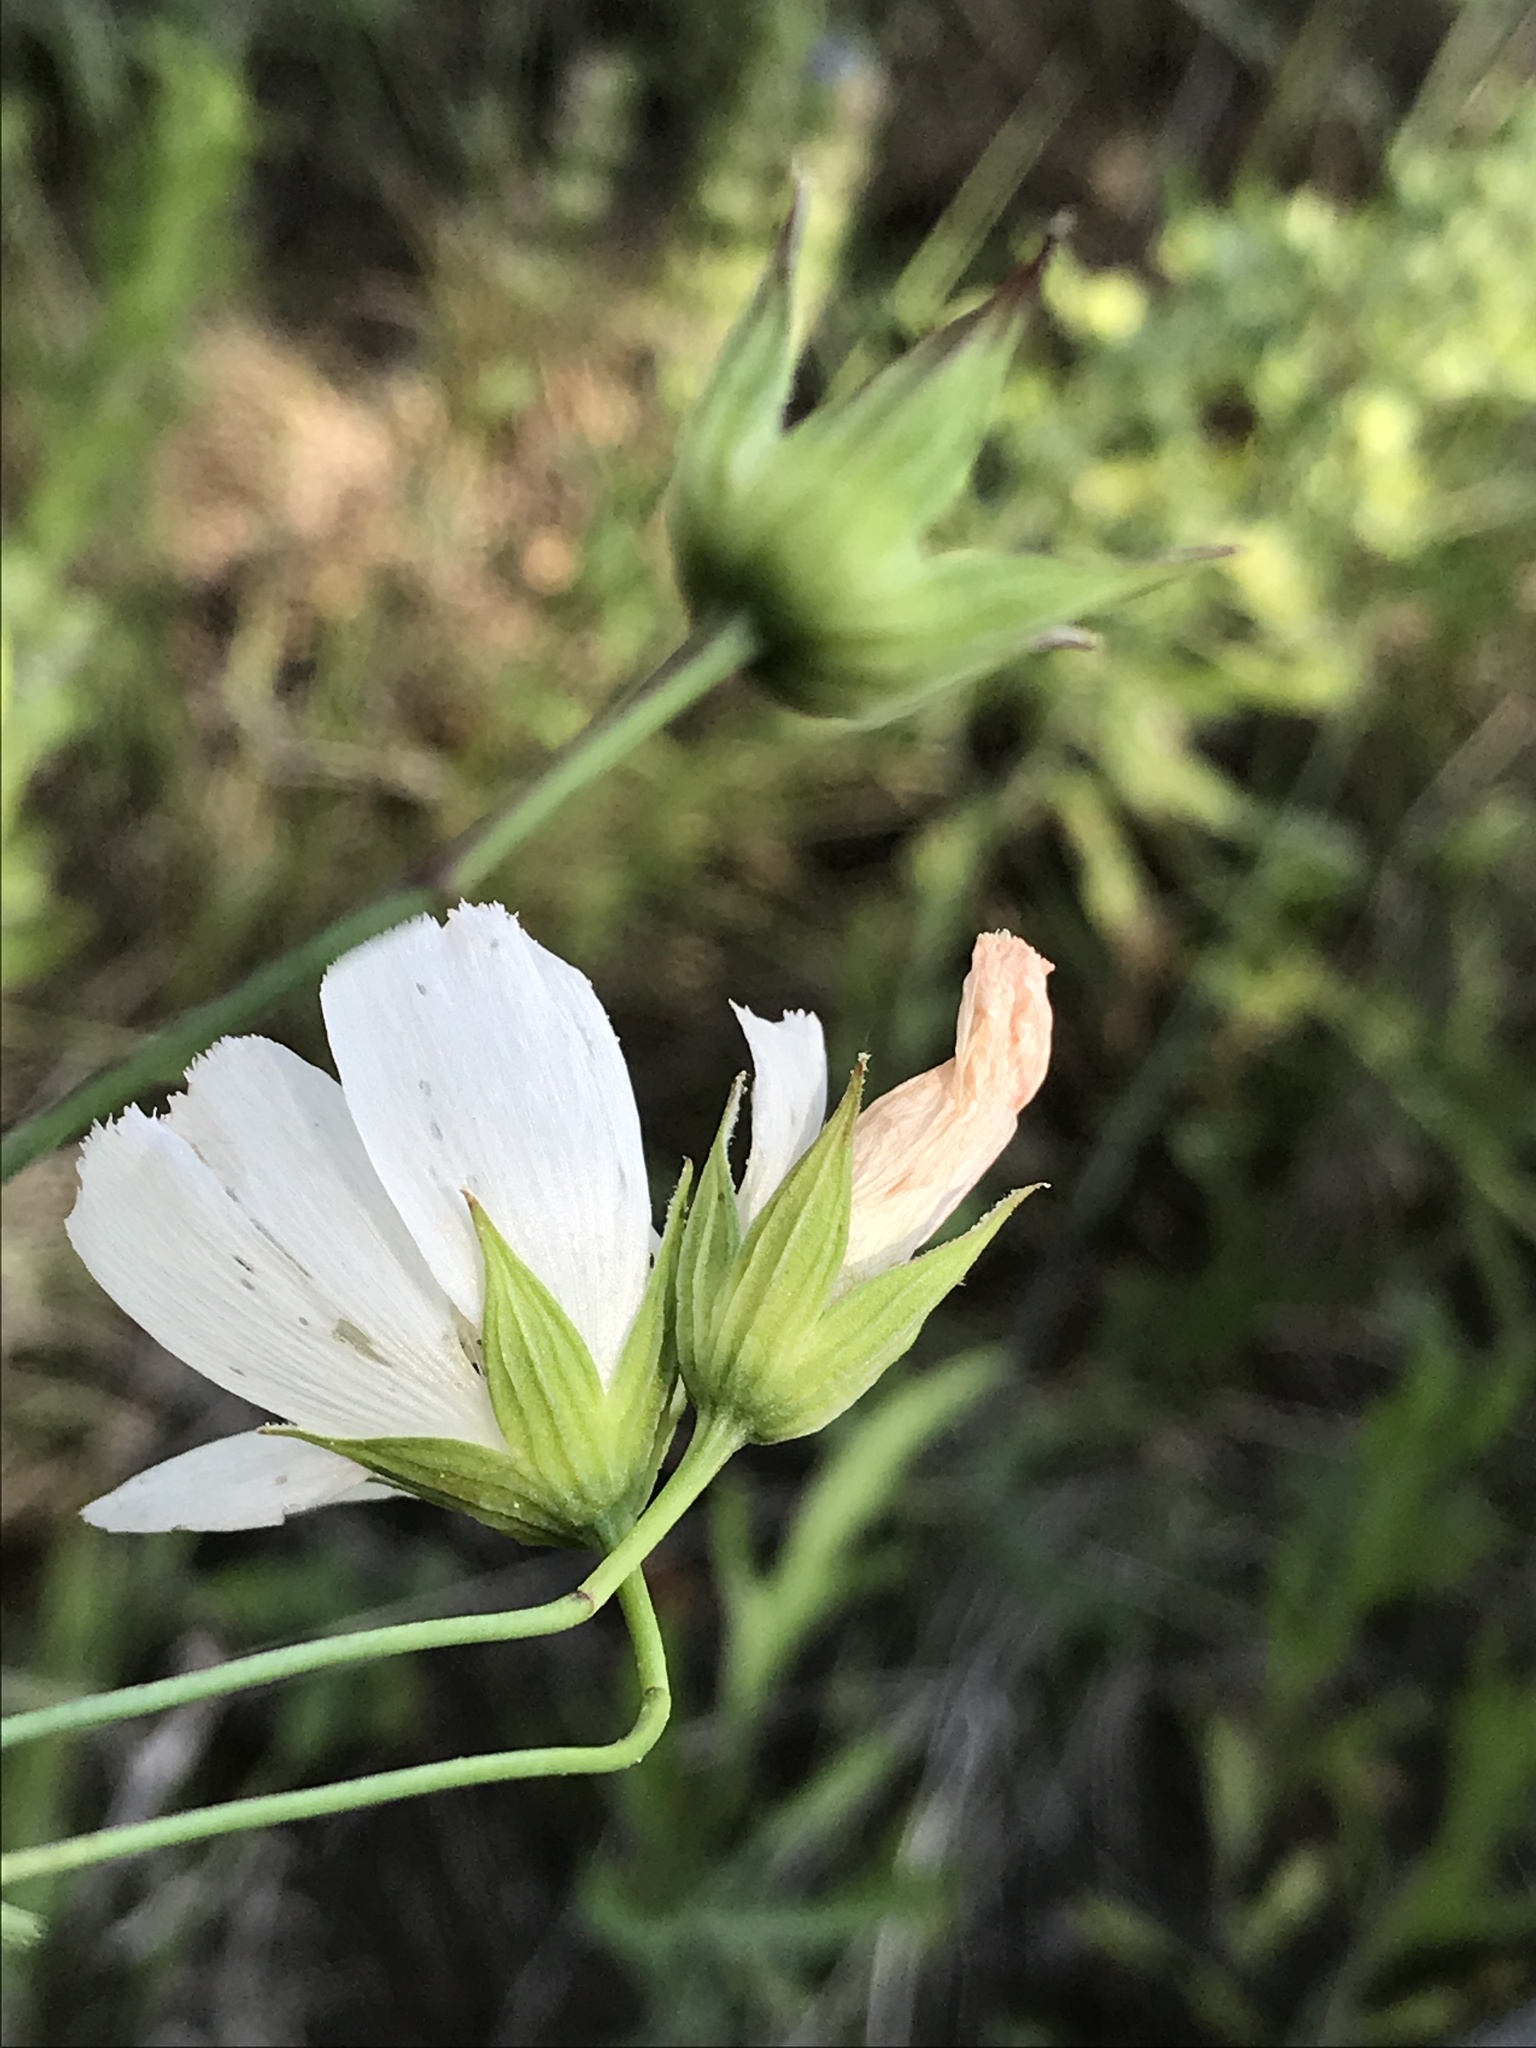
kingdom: Plantae
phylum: Tracheophyta
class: Magnoliopsida
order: Malvales
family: Malvaceae
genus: Callirhoe
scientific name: Callirhoe pedata
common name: Finger poppy-mallow
